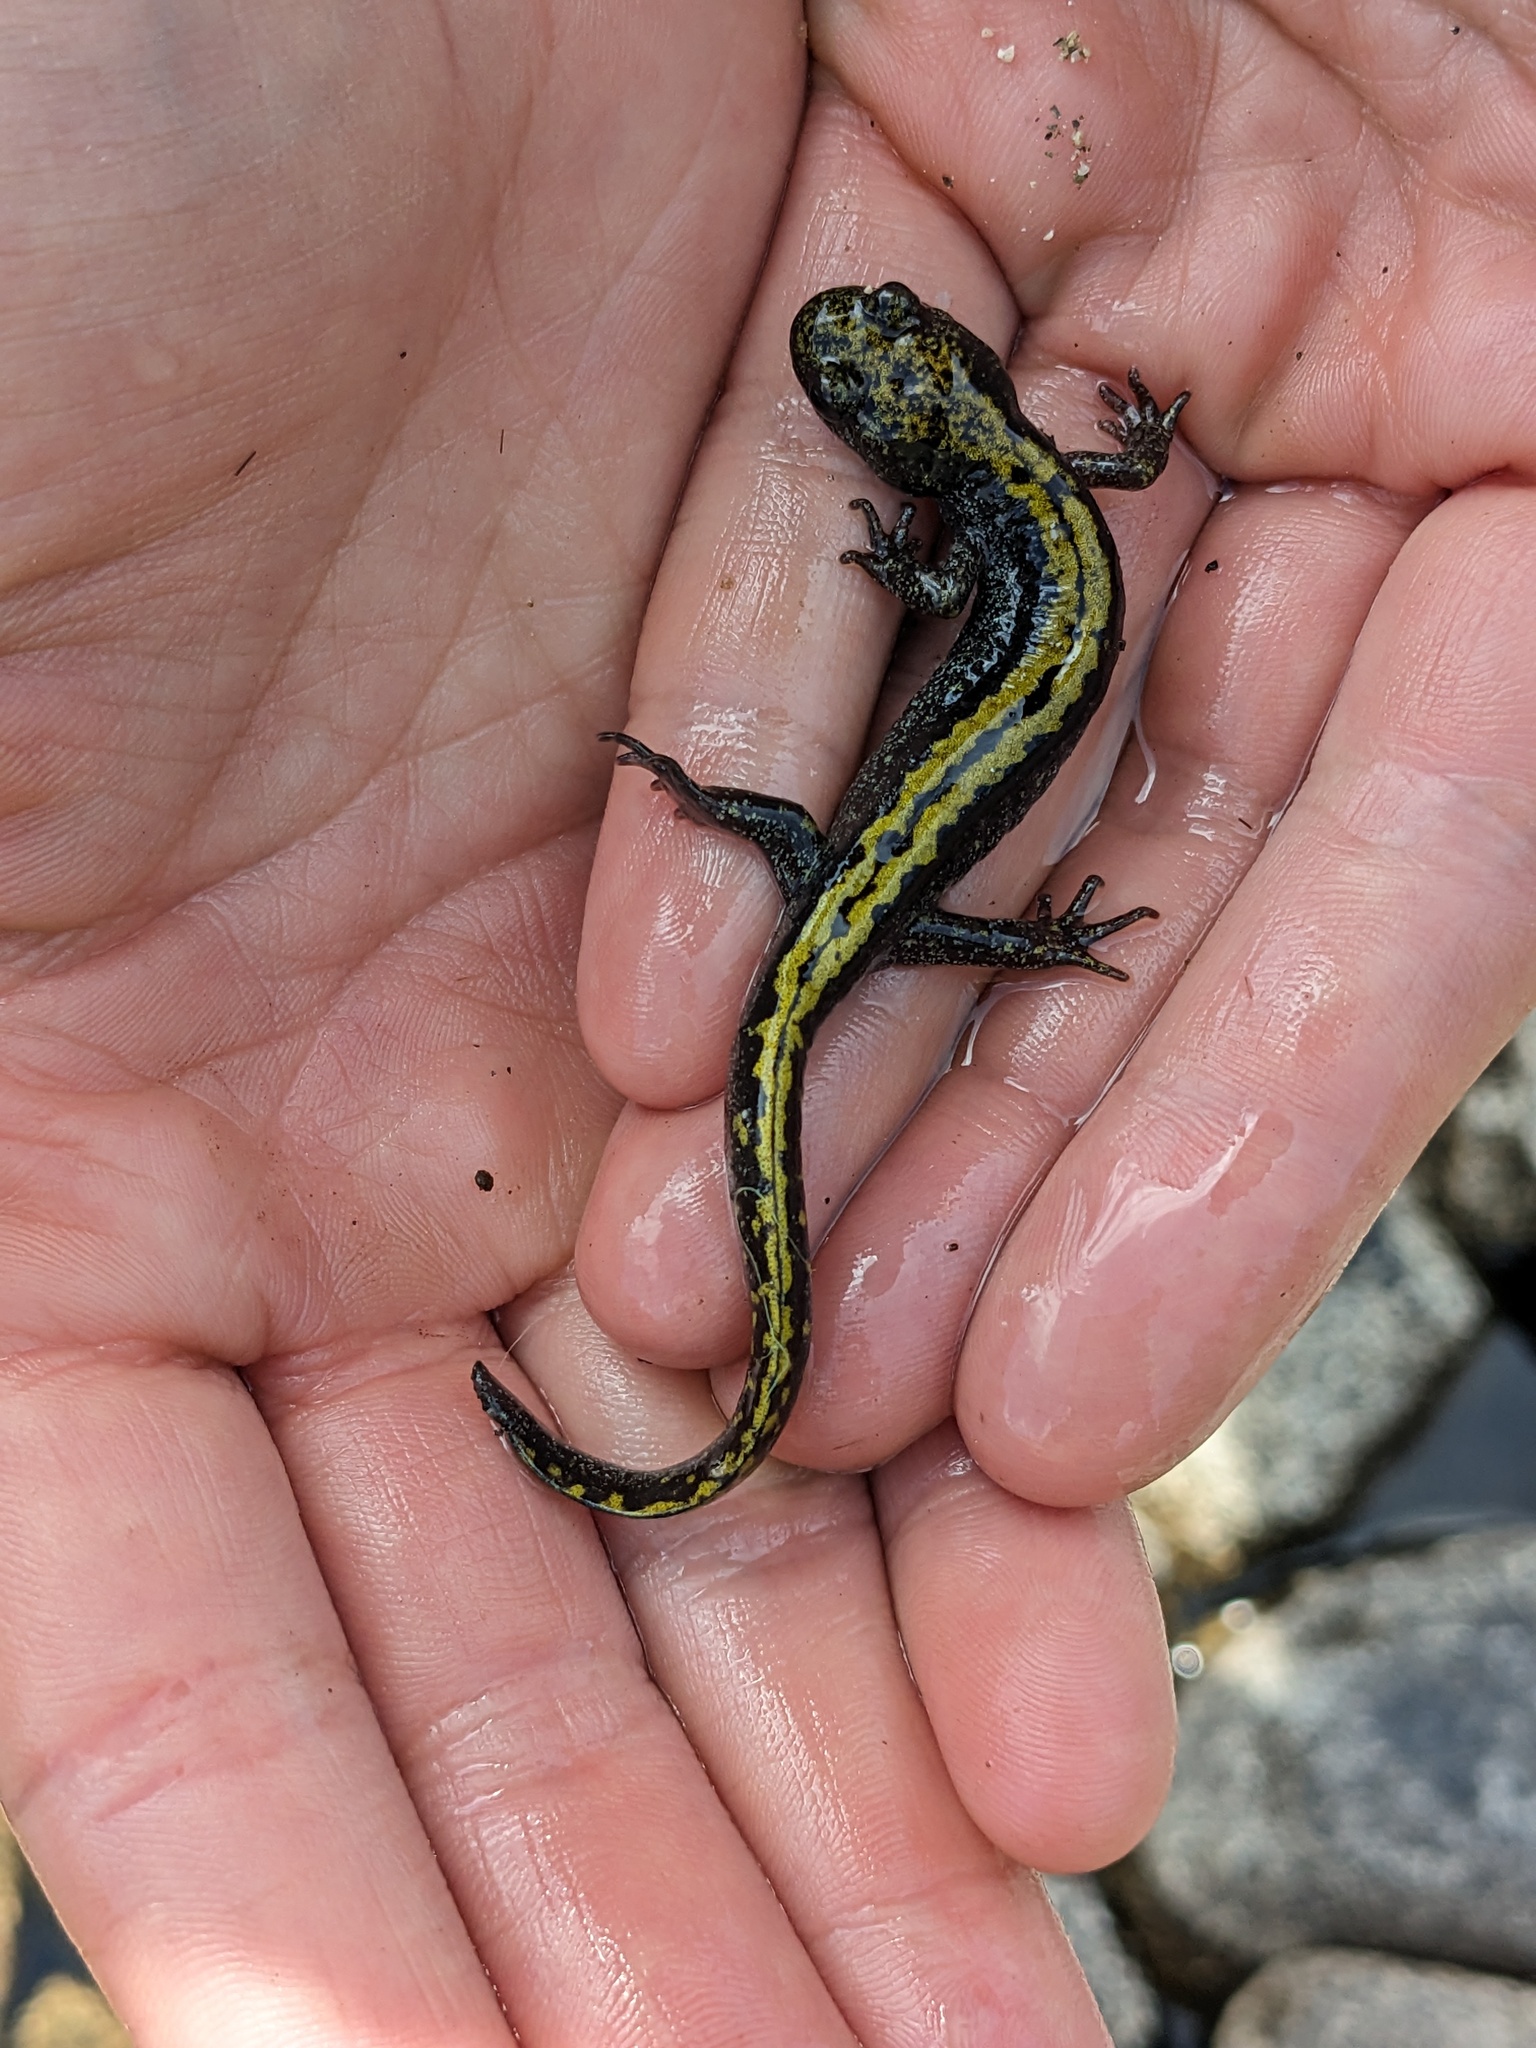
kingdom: Animalia
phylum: Chordata
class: Amphibia
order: Caudata
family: Ambystomatidae
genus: Ambystoma
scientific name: Ambystoma macrodactylum
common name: Long-toed salamander
